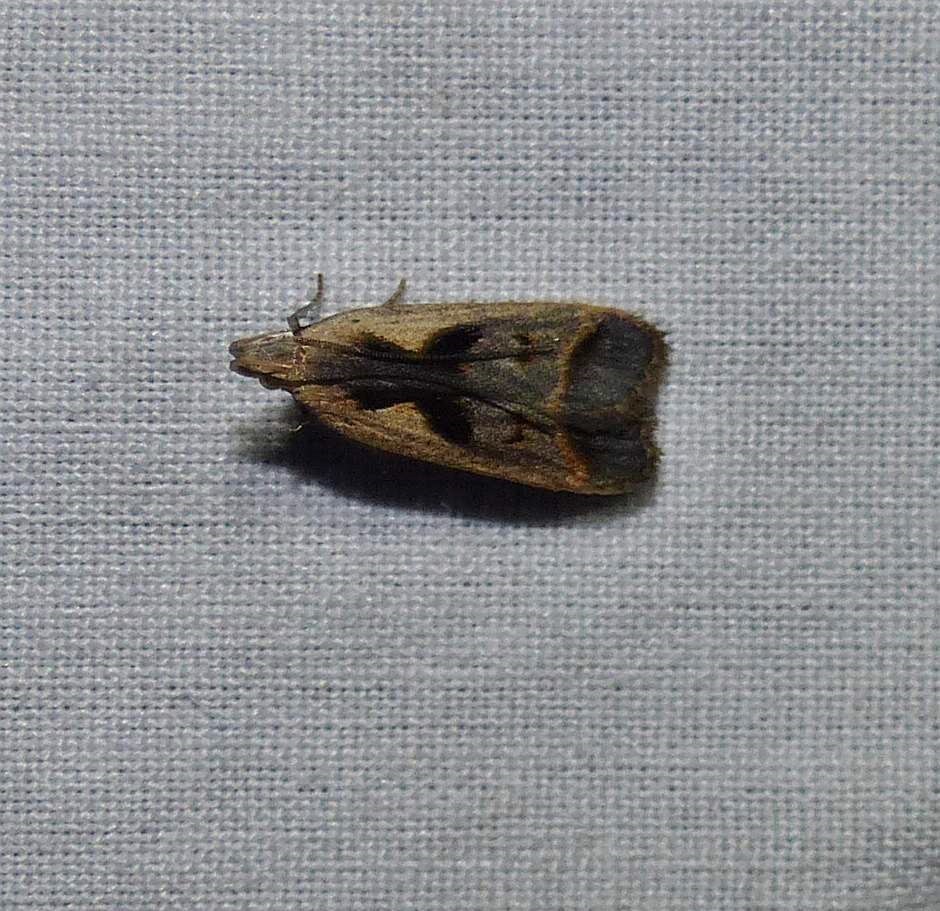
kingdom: Animalia
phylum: Arthropoda
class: Insecta
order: Lepidoptera
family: Gelechiidae
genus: Dichomeris
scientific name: Dichomeris bilobella
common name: Bilobed dichomeris moth
